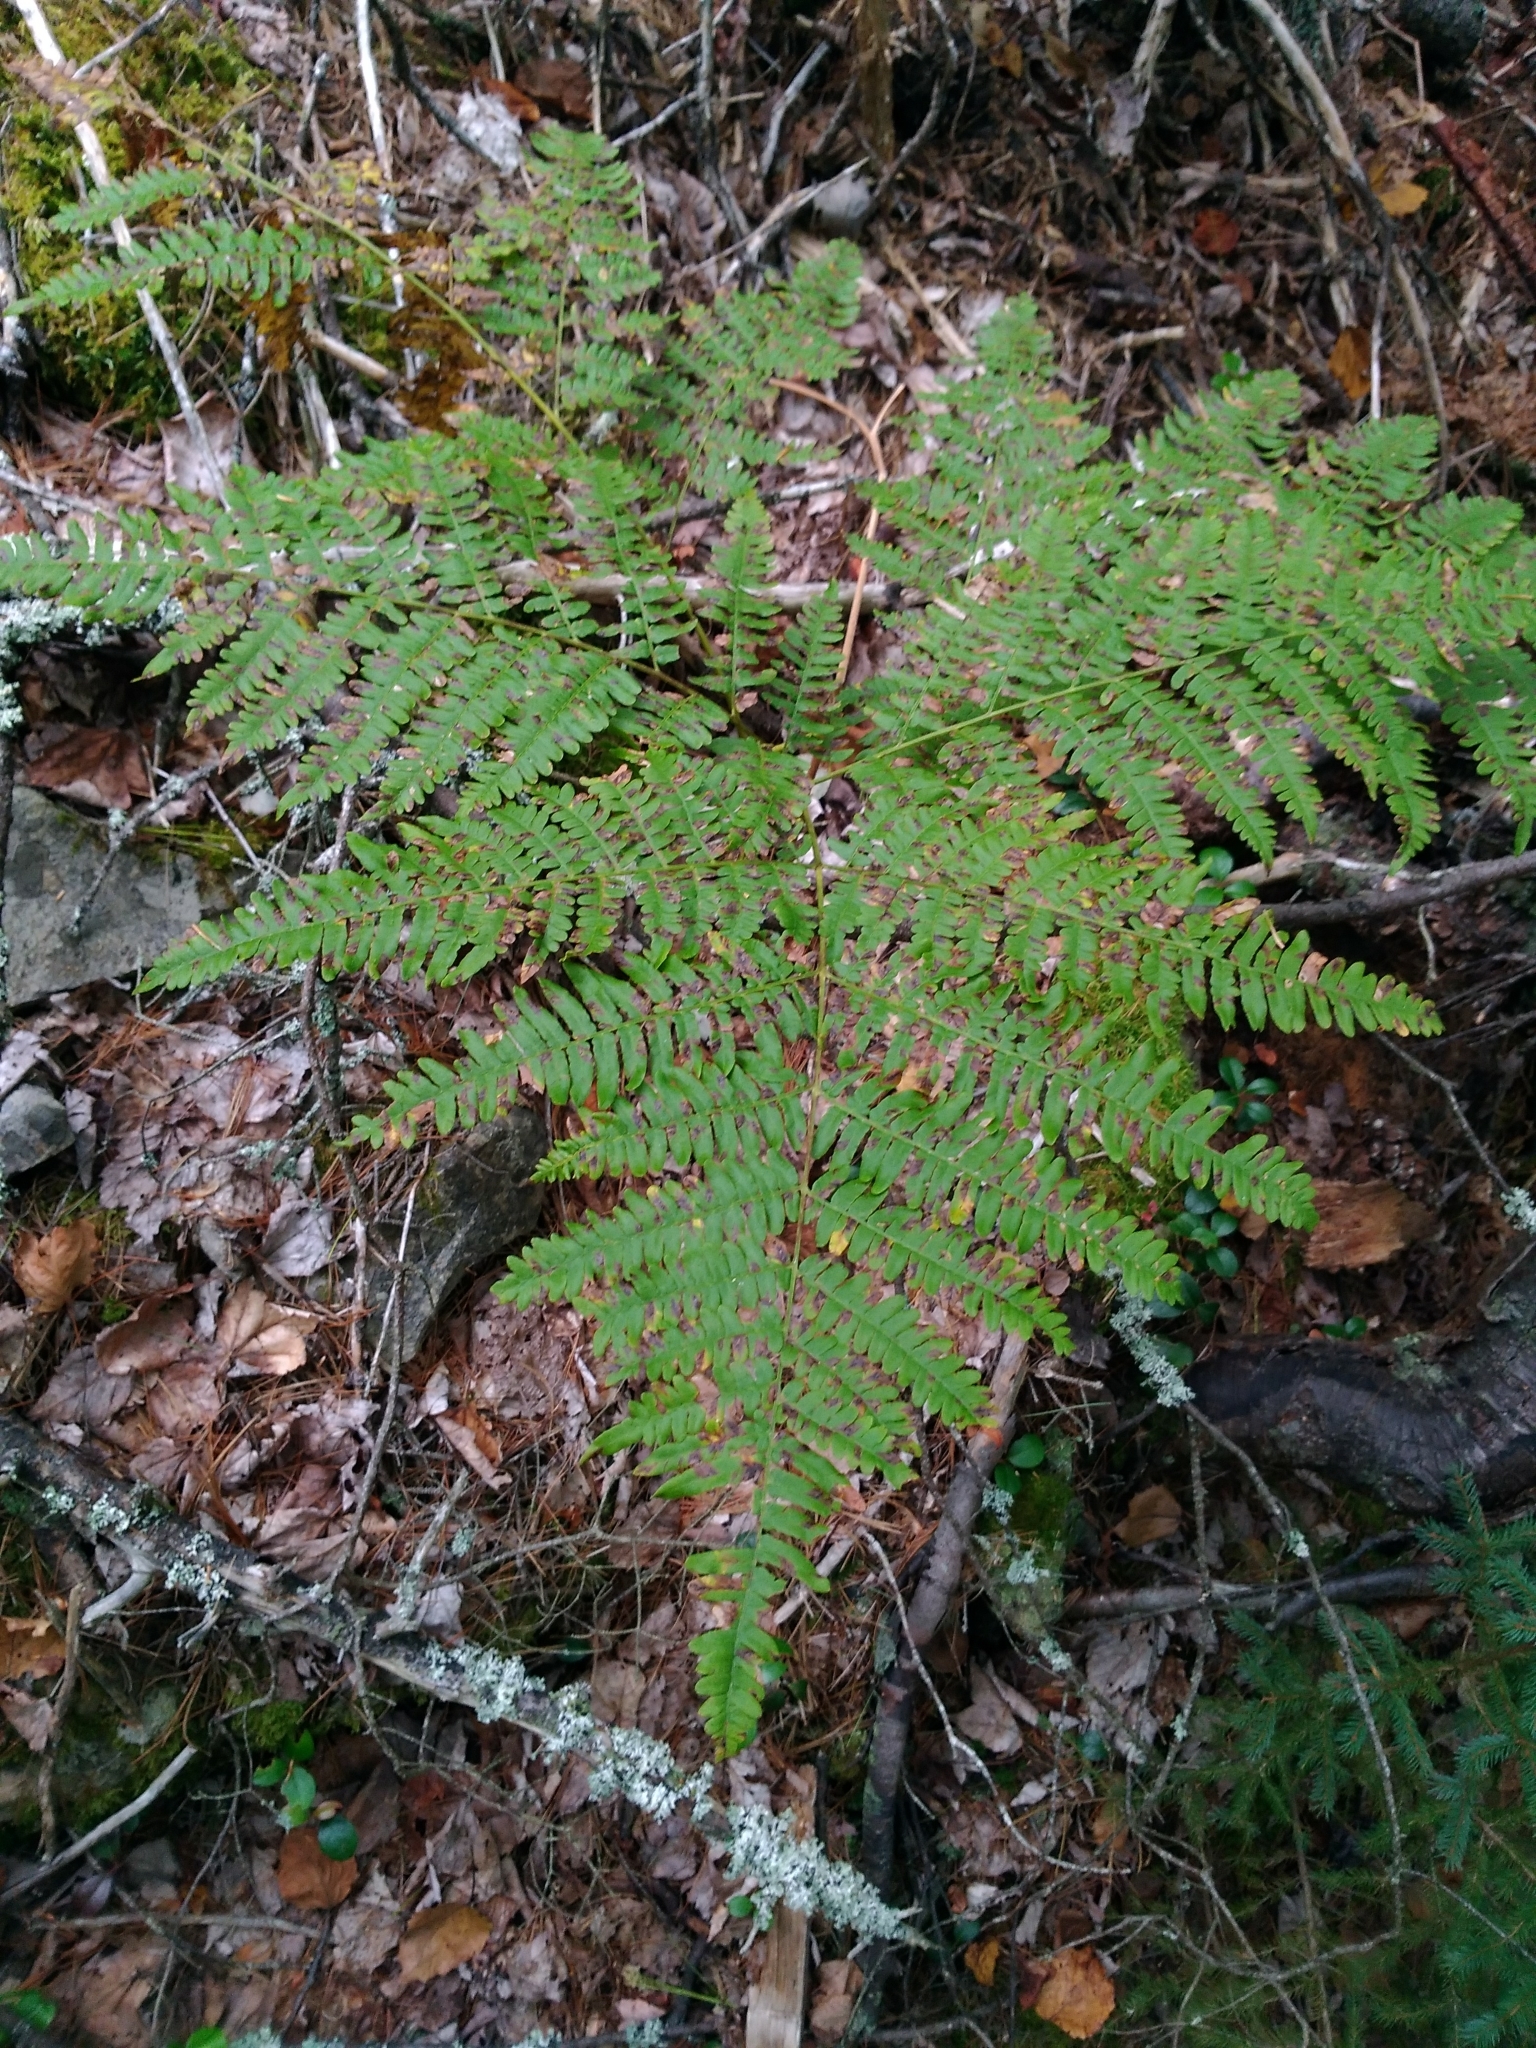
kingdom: Plantae
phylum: Tracheophyta
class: Polypodiopsida
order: Polypodiales
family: Dennstaedtiaceae
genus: Pteridium
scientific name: Pteridium aquilinum
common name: Bracken
